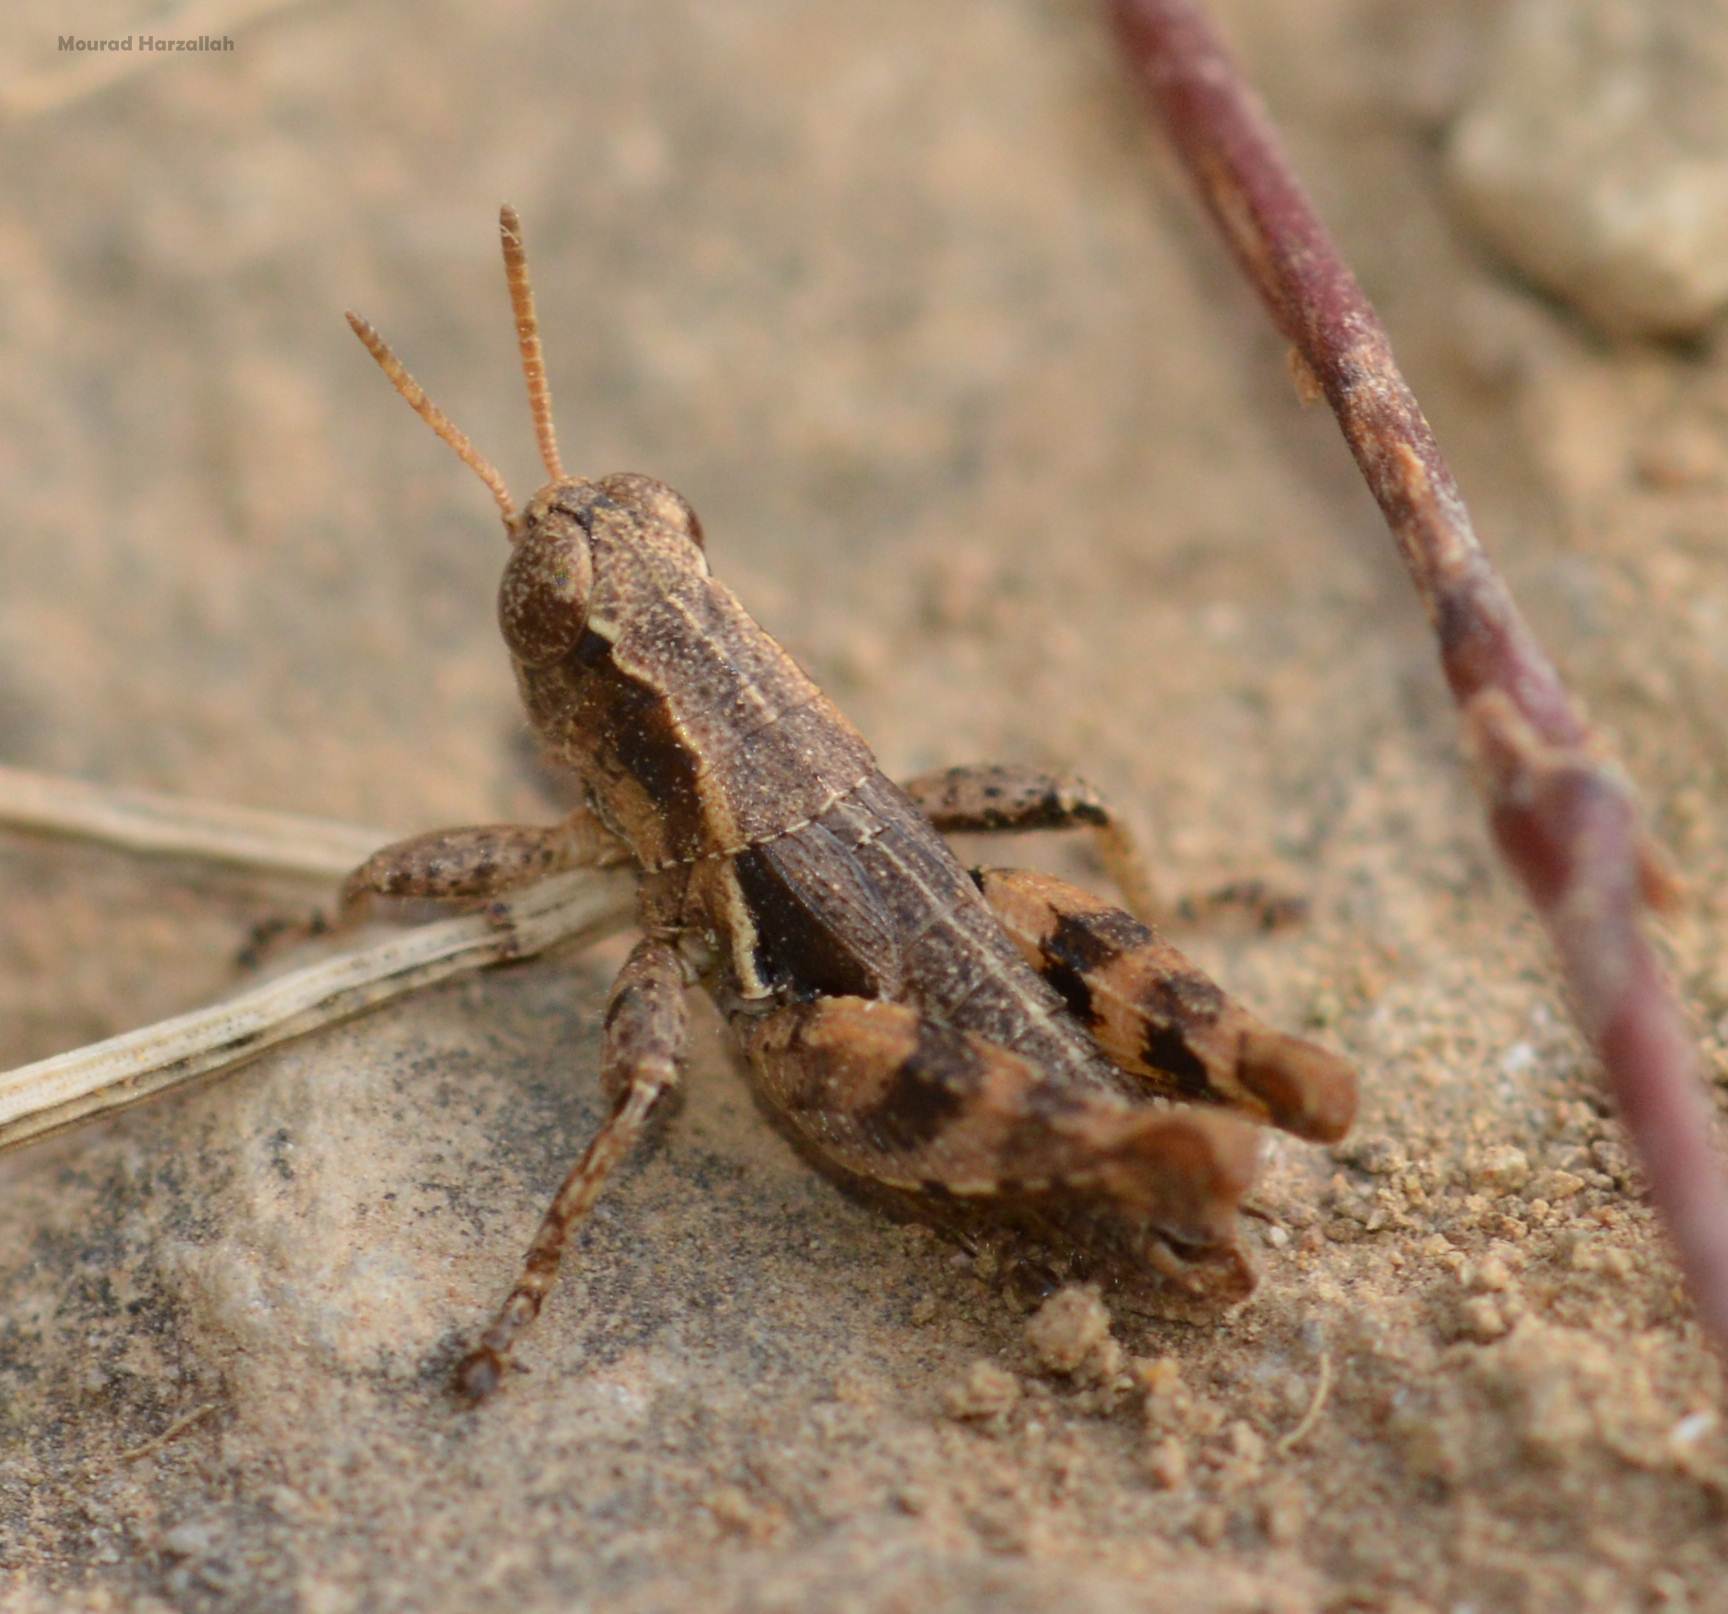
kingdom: Animalia
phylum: Arthropoda
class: Insecta
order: Orthoptera
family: Acrididae
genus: Pezotettix
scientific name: Pezotettix giornae
